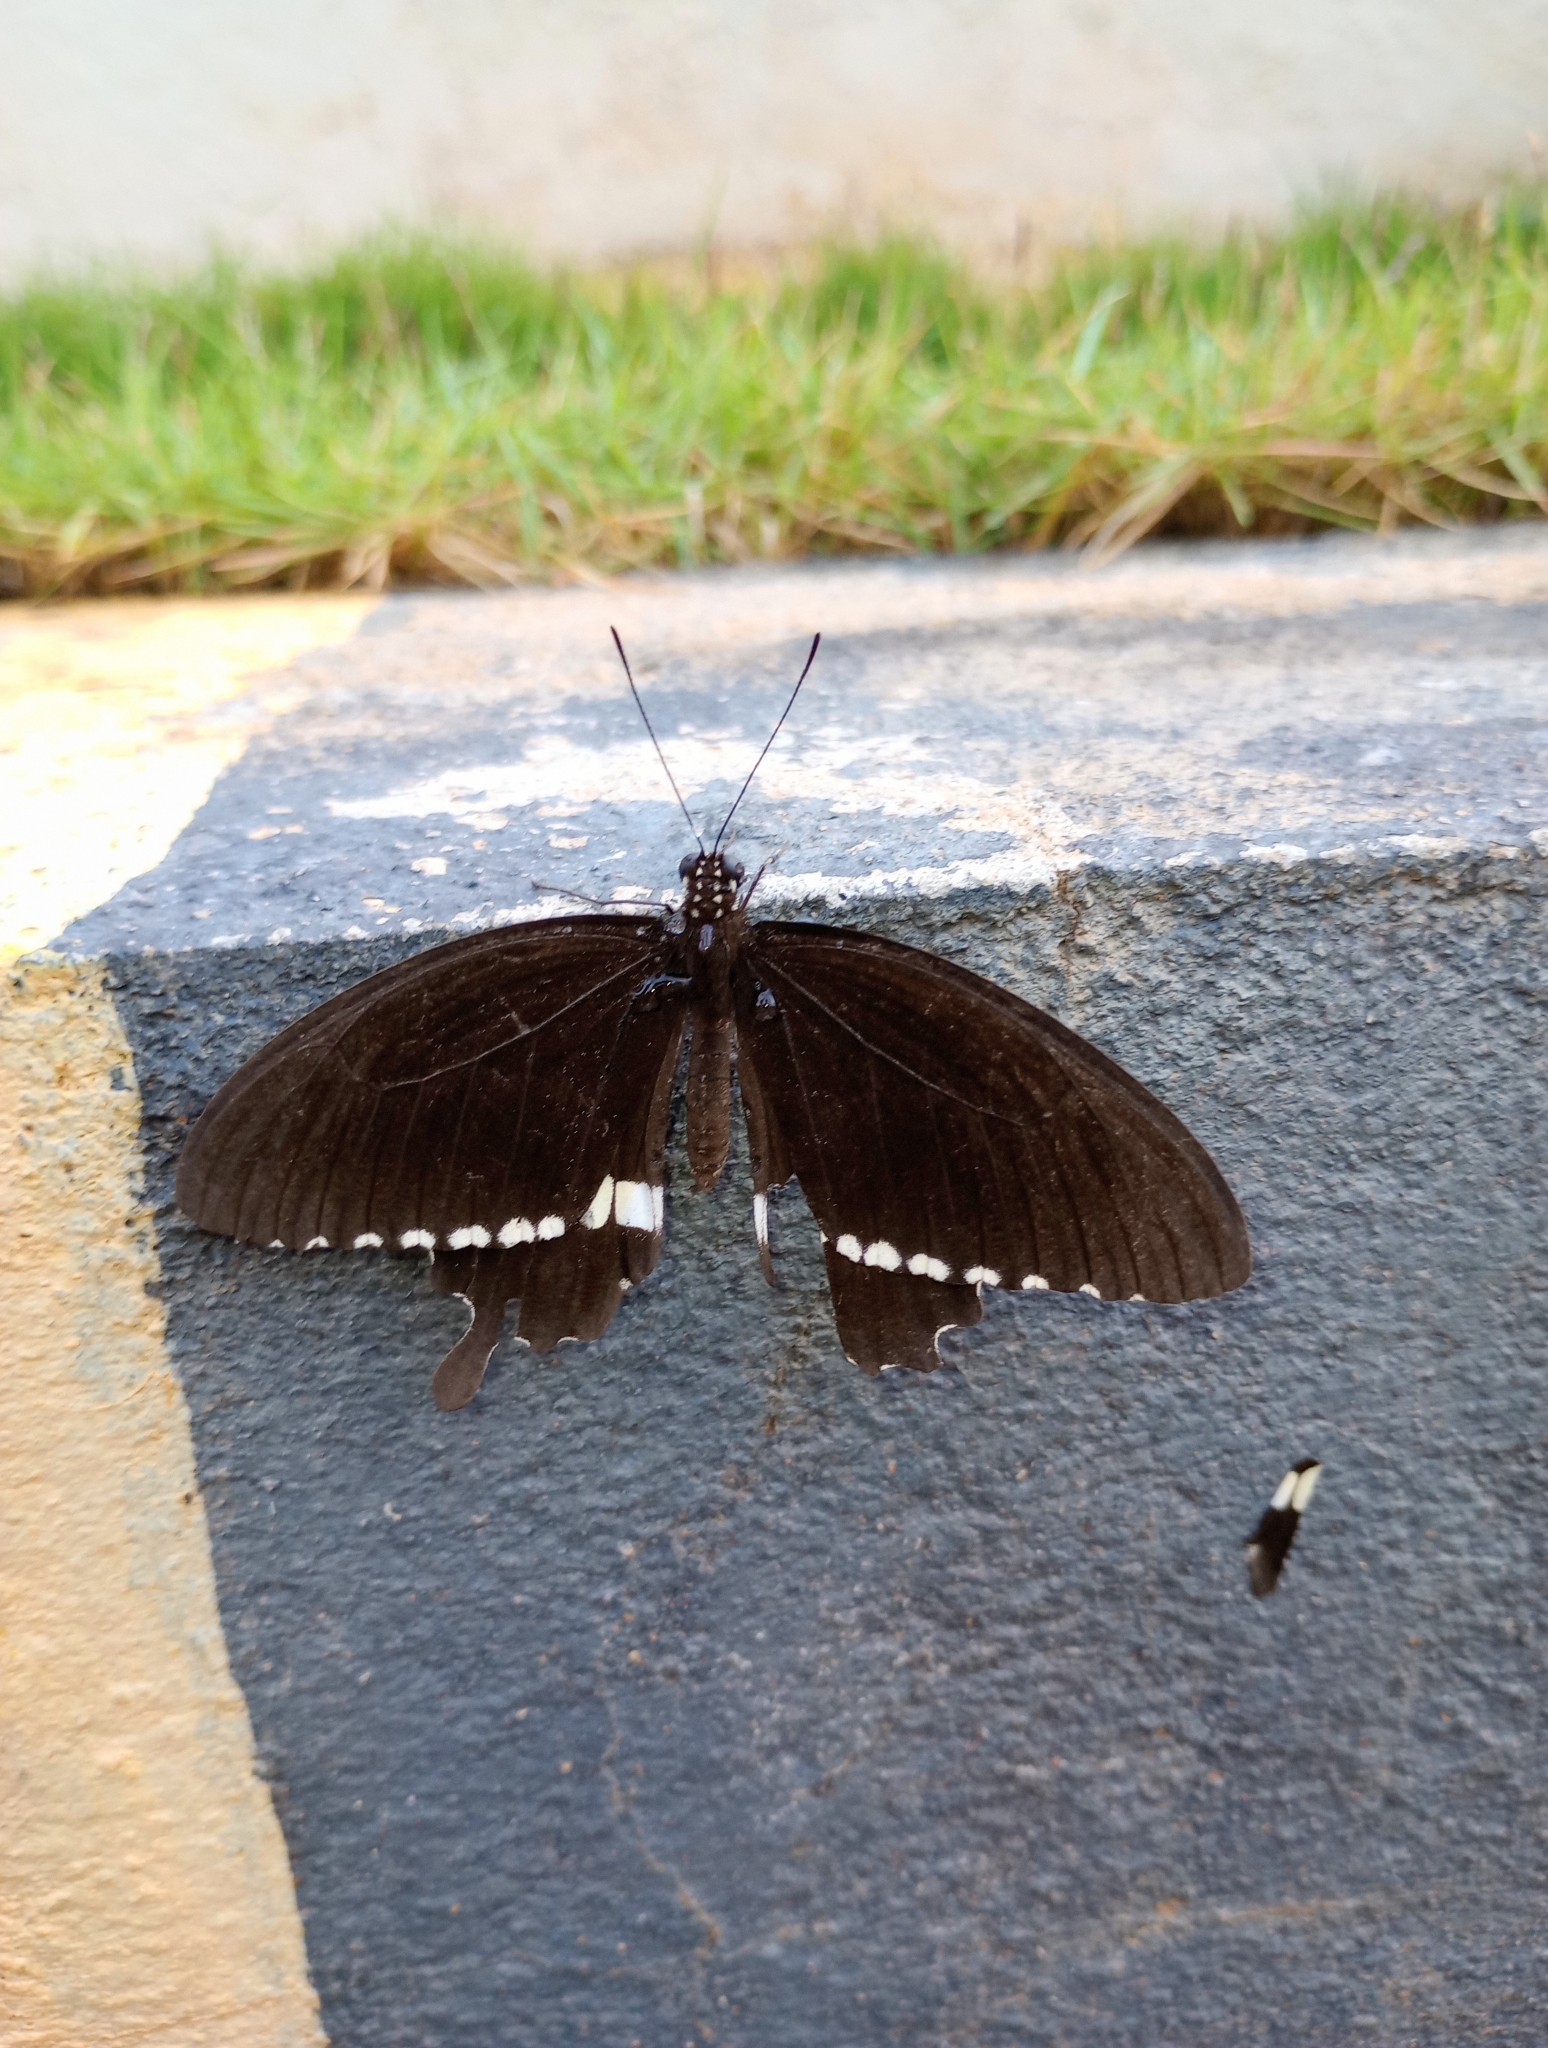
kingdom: Animalia
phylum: Arthropoda
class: Insecta
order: Lepidoptera
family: Papilionidae
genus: Papilio
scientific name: Papilio polytes
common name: Common mormon
